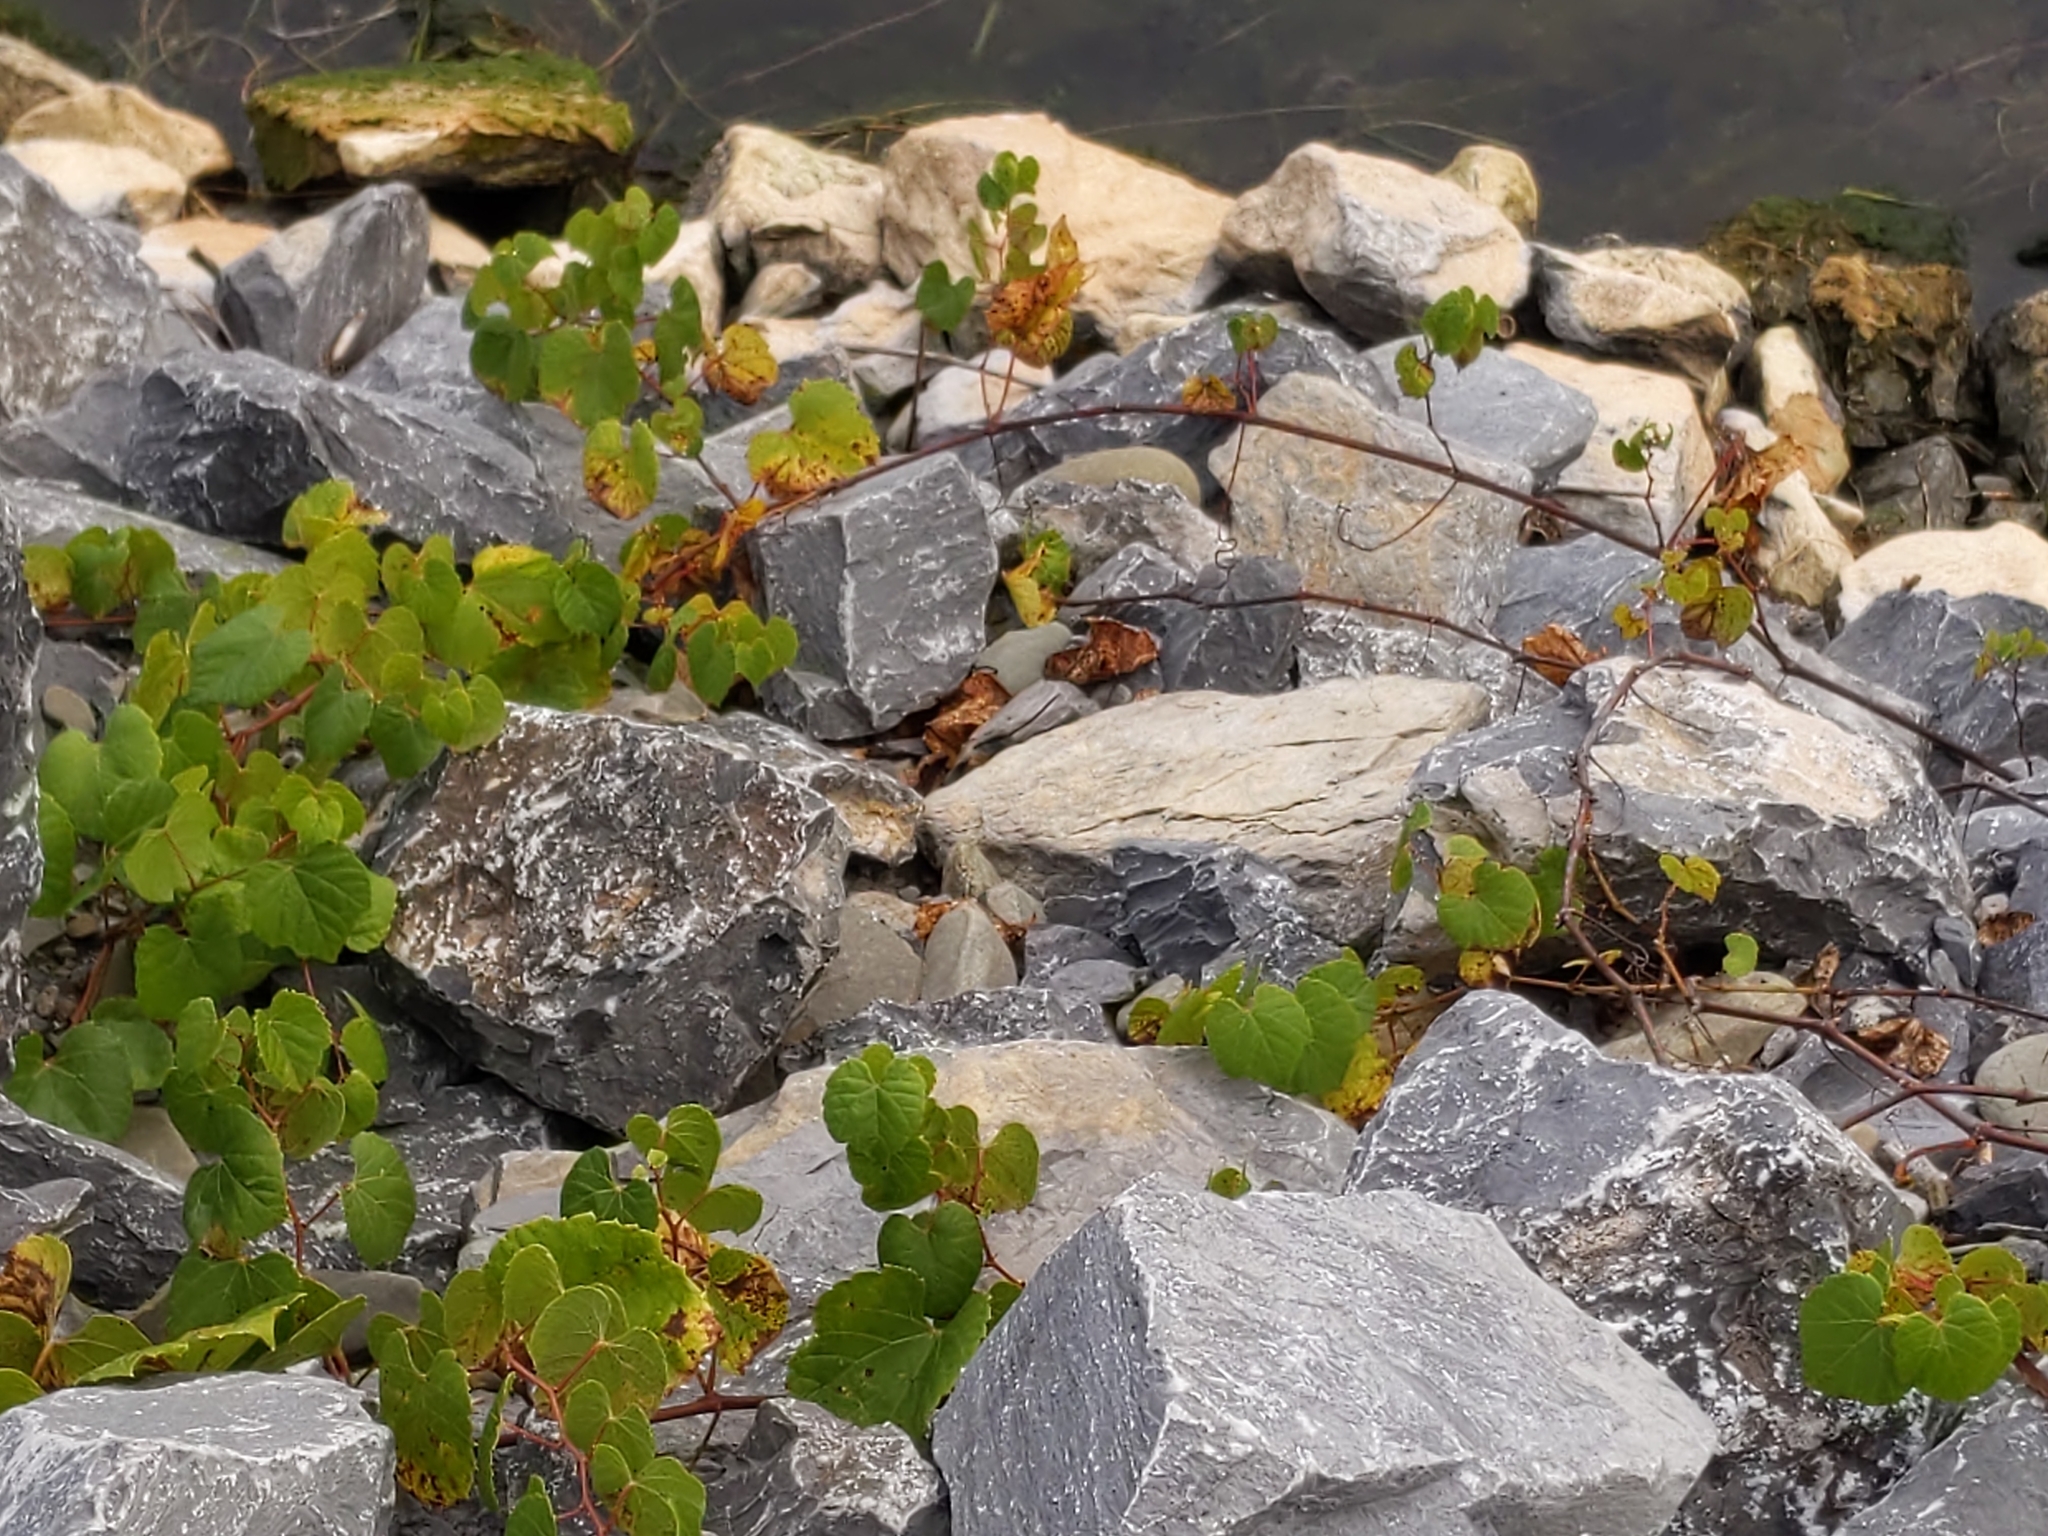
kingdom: Plantae
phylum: Tracheophyta
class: Magnoliopsida
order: Vitales
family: Vitaceae
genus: Vitis
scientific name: Vitis riparia
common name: Frost grape
